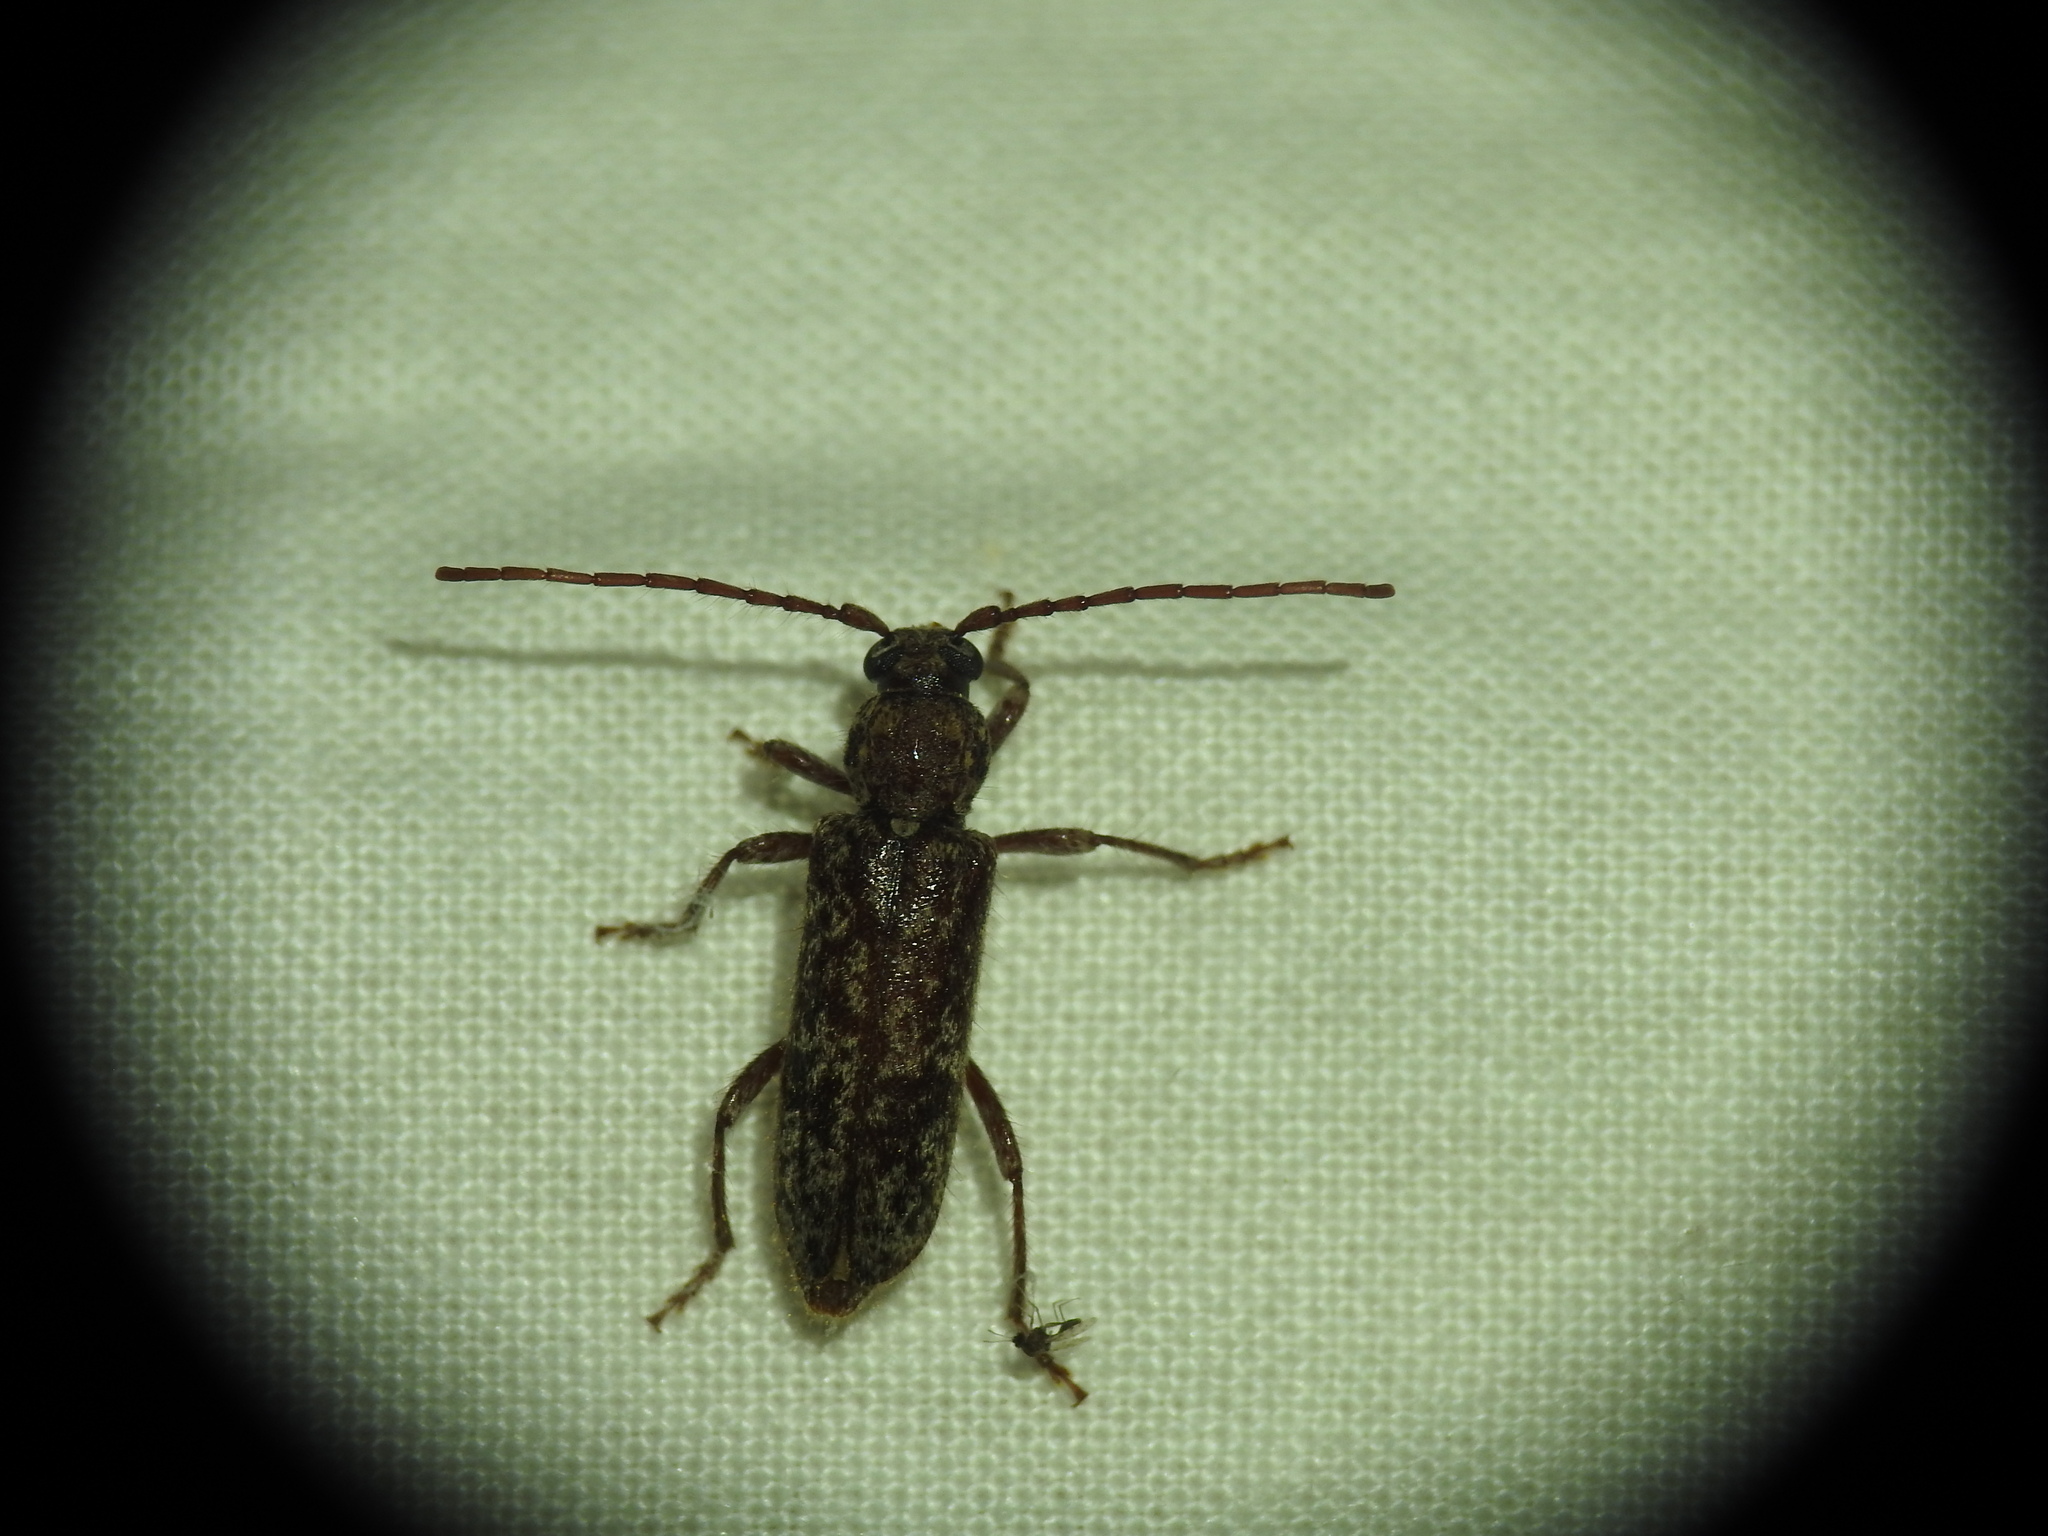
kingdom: Animalia
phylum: Arthropoda
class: Insecta
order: Coleoptera
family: Cerambycidae
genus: Trichoferus
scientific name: Trichoferus fasciculatus
